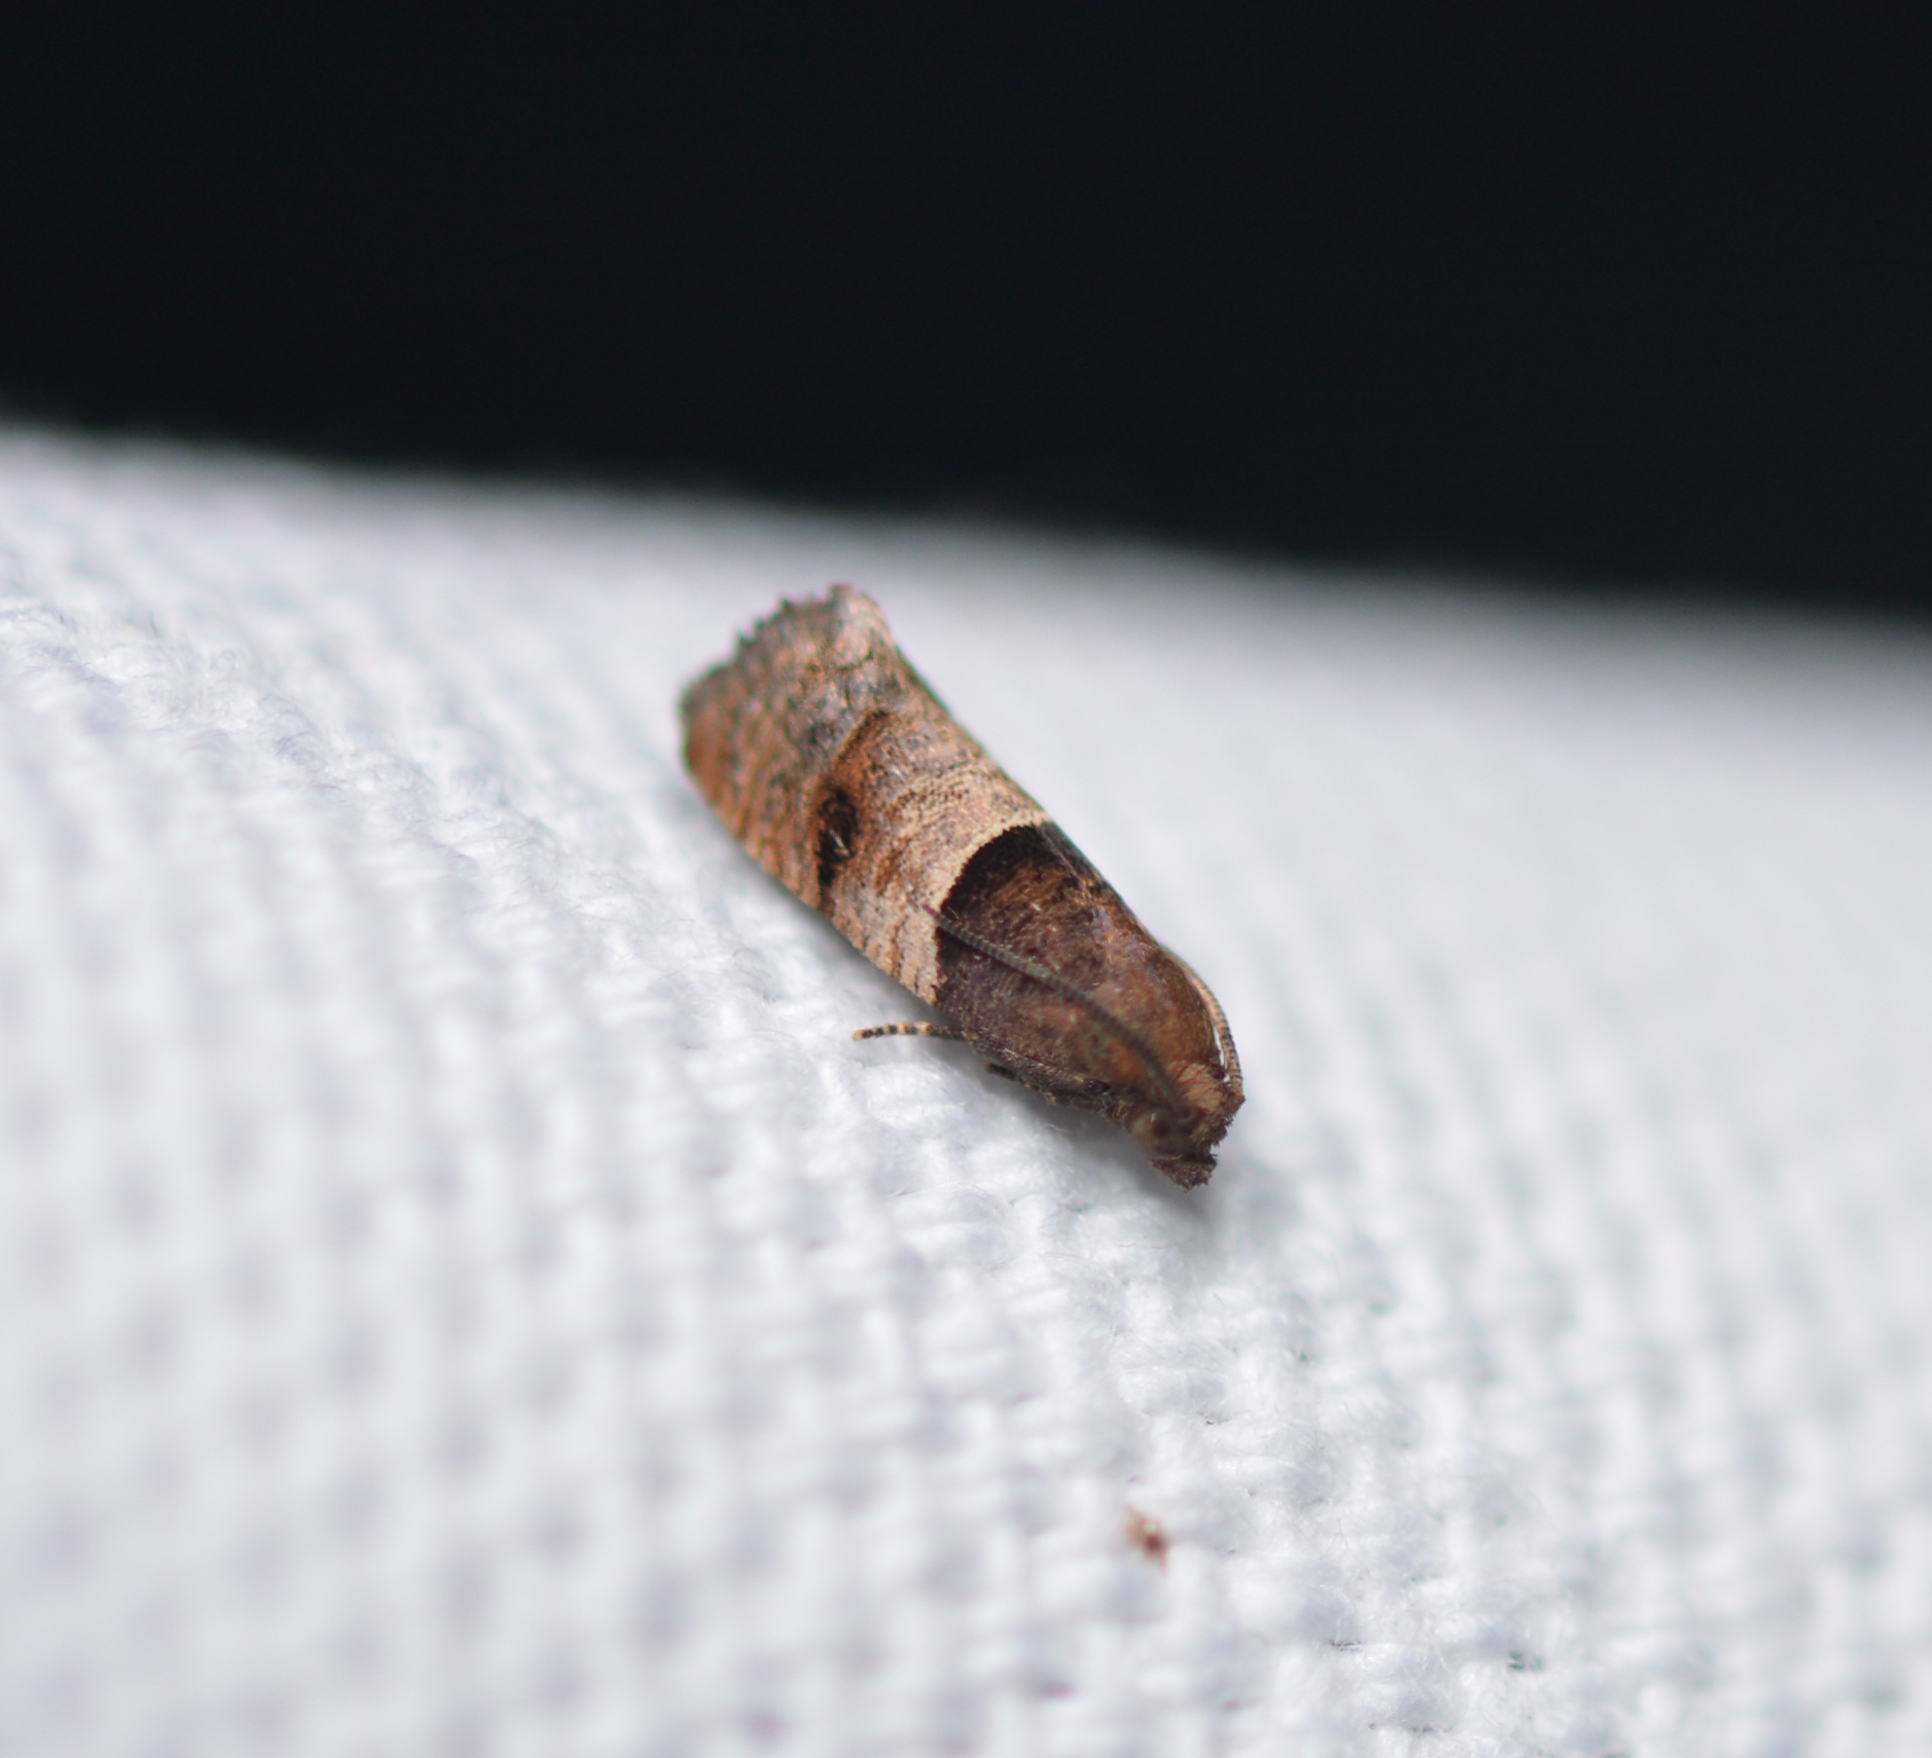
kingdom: Animalia
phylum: Arthropoda
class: Insecta
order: Lepidoptera
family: Tortricidae
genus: Larisa
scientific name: Larisa subsolana
